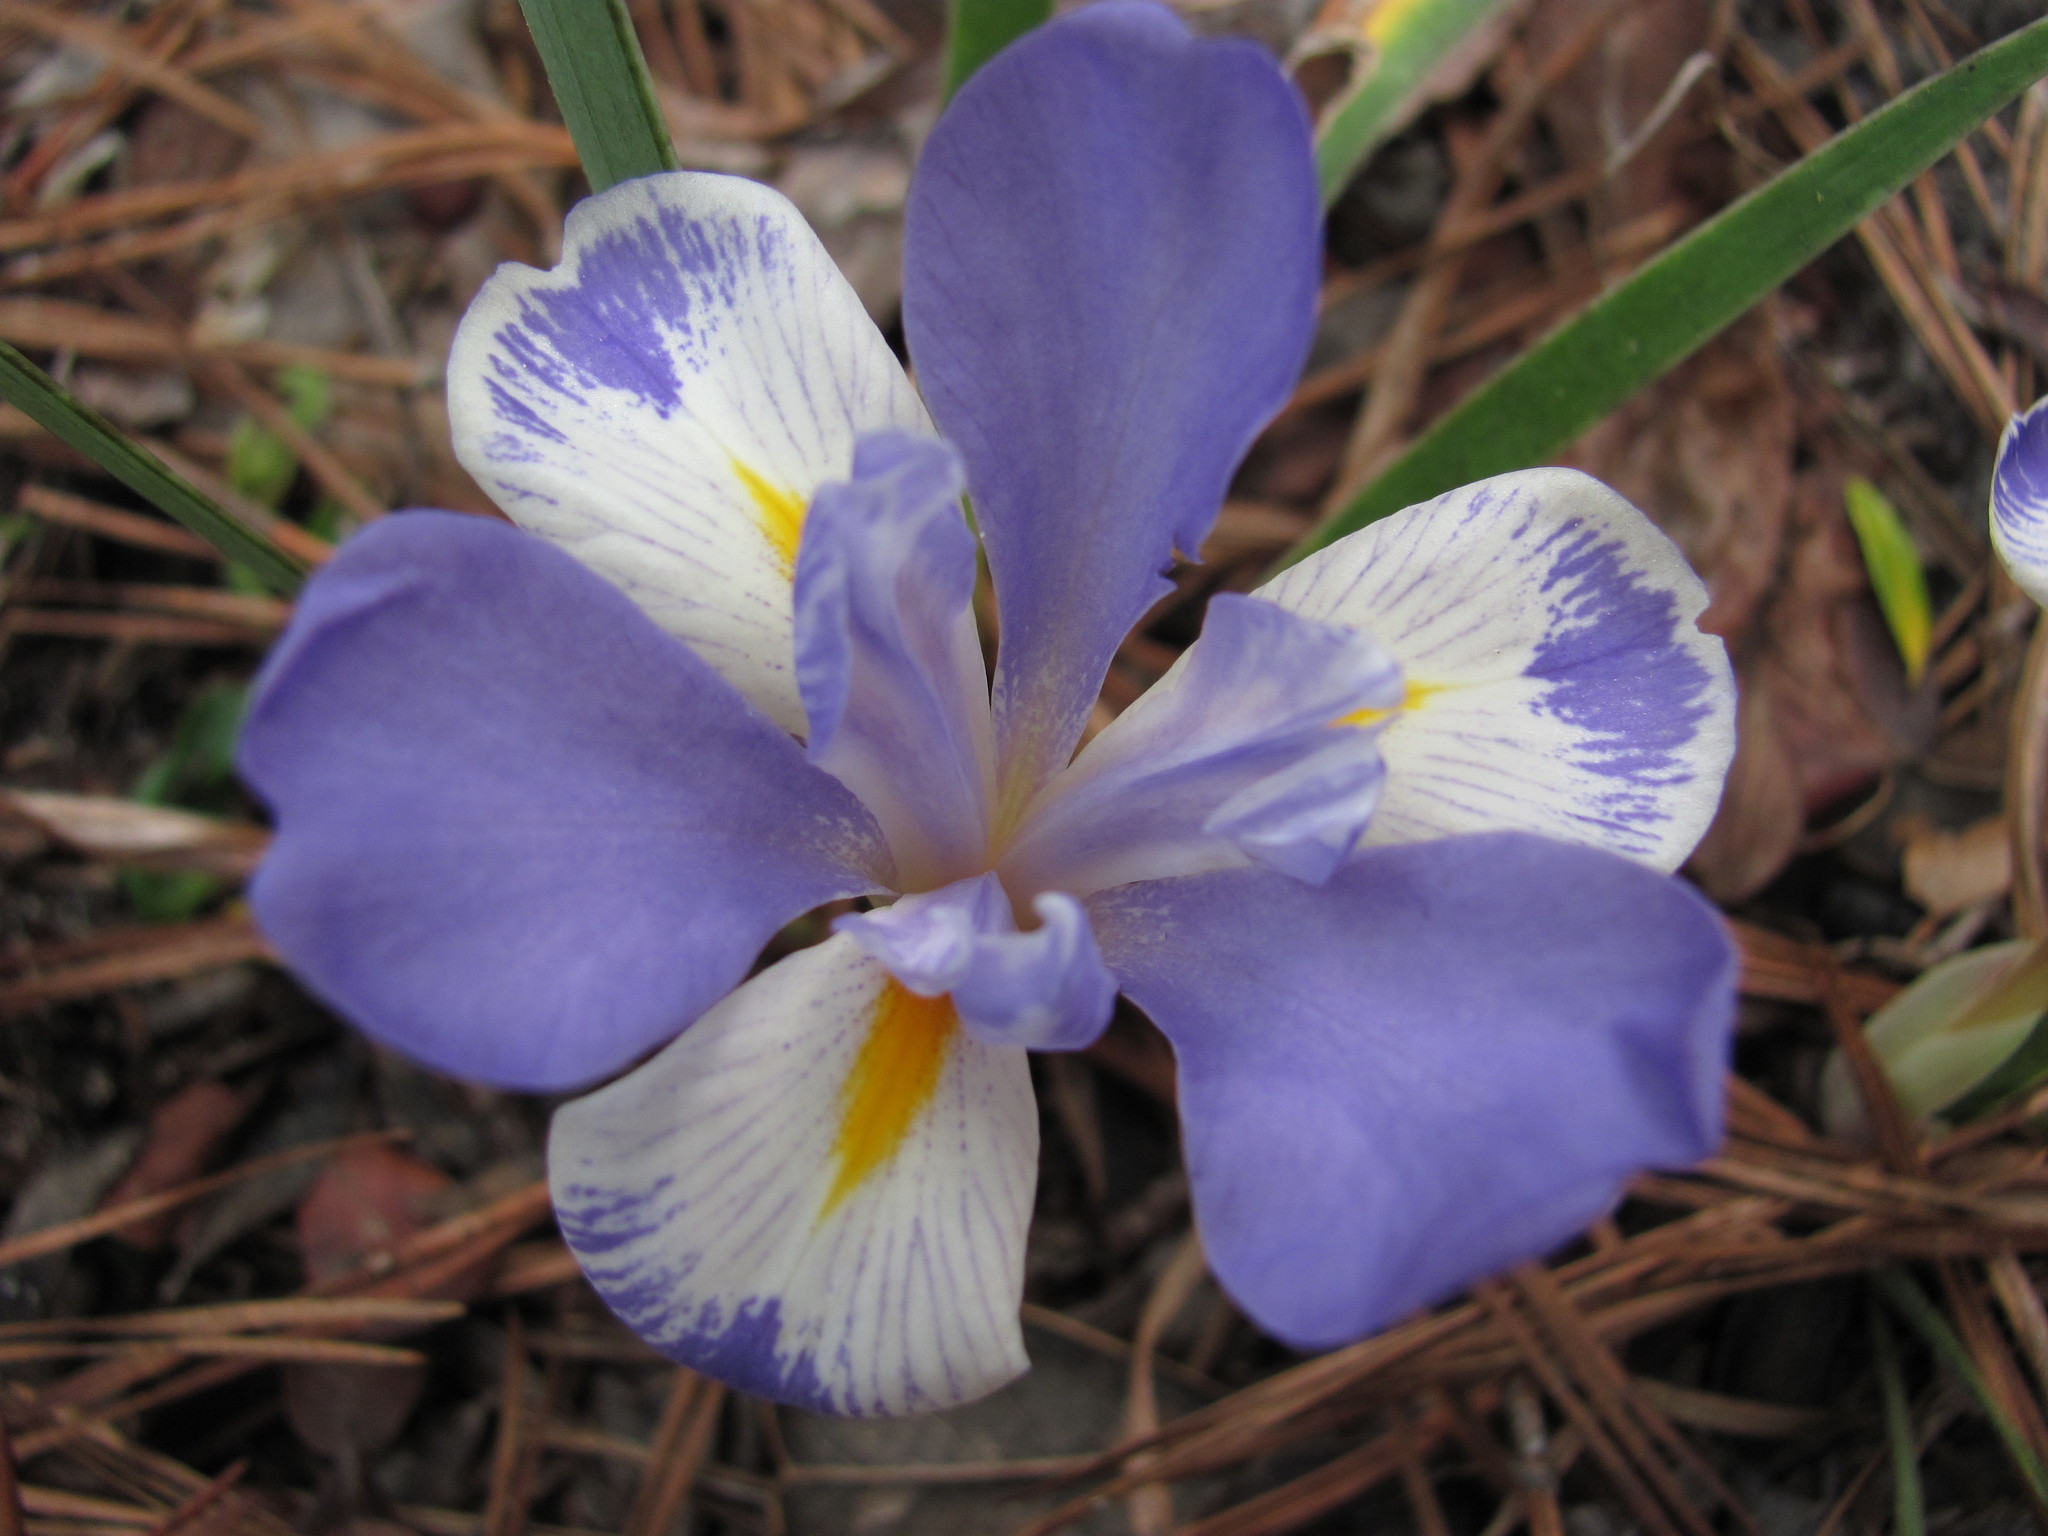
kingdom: Plantae
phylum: Tracheophyta
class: Liliopsida
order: Asparagales
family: Iridaceae
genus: Iris
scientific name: Iris verna
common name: Dwarf iris
